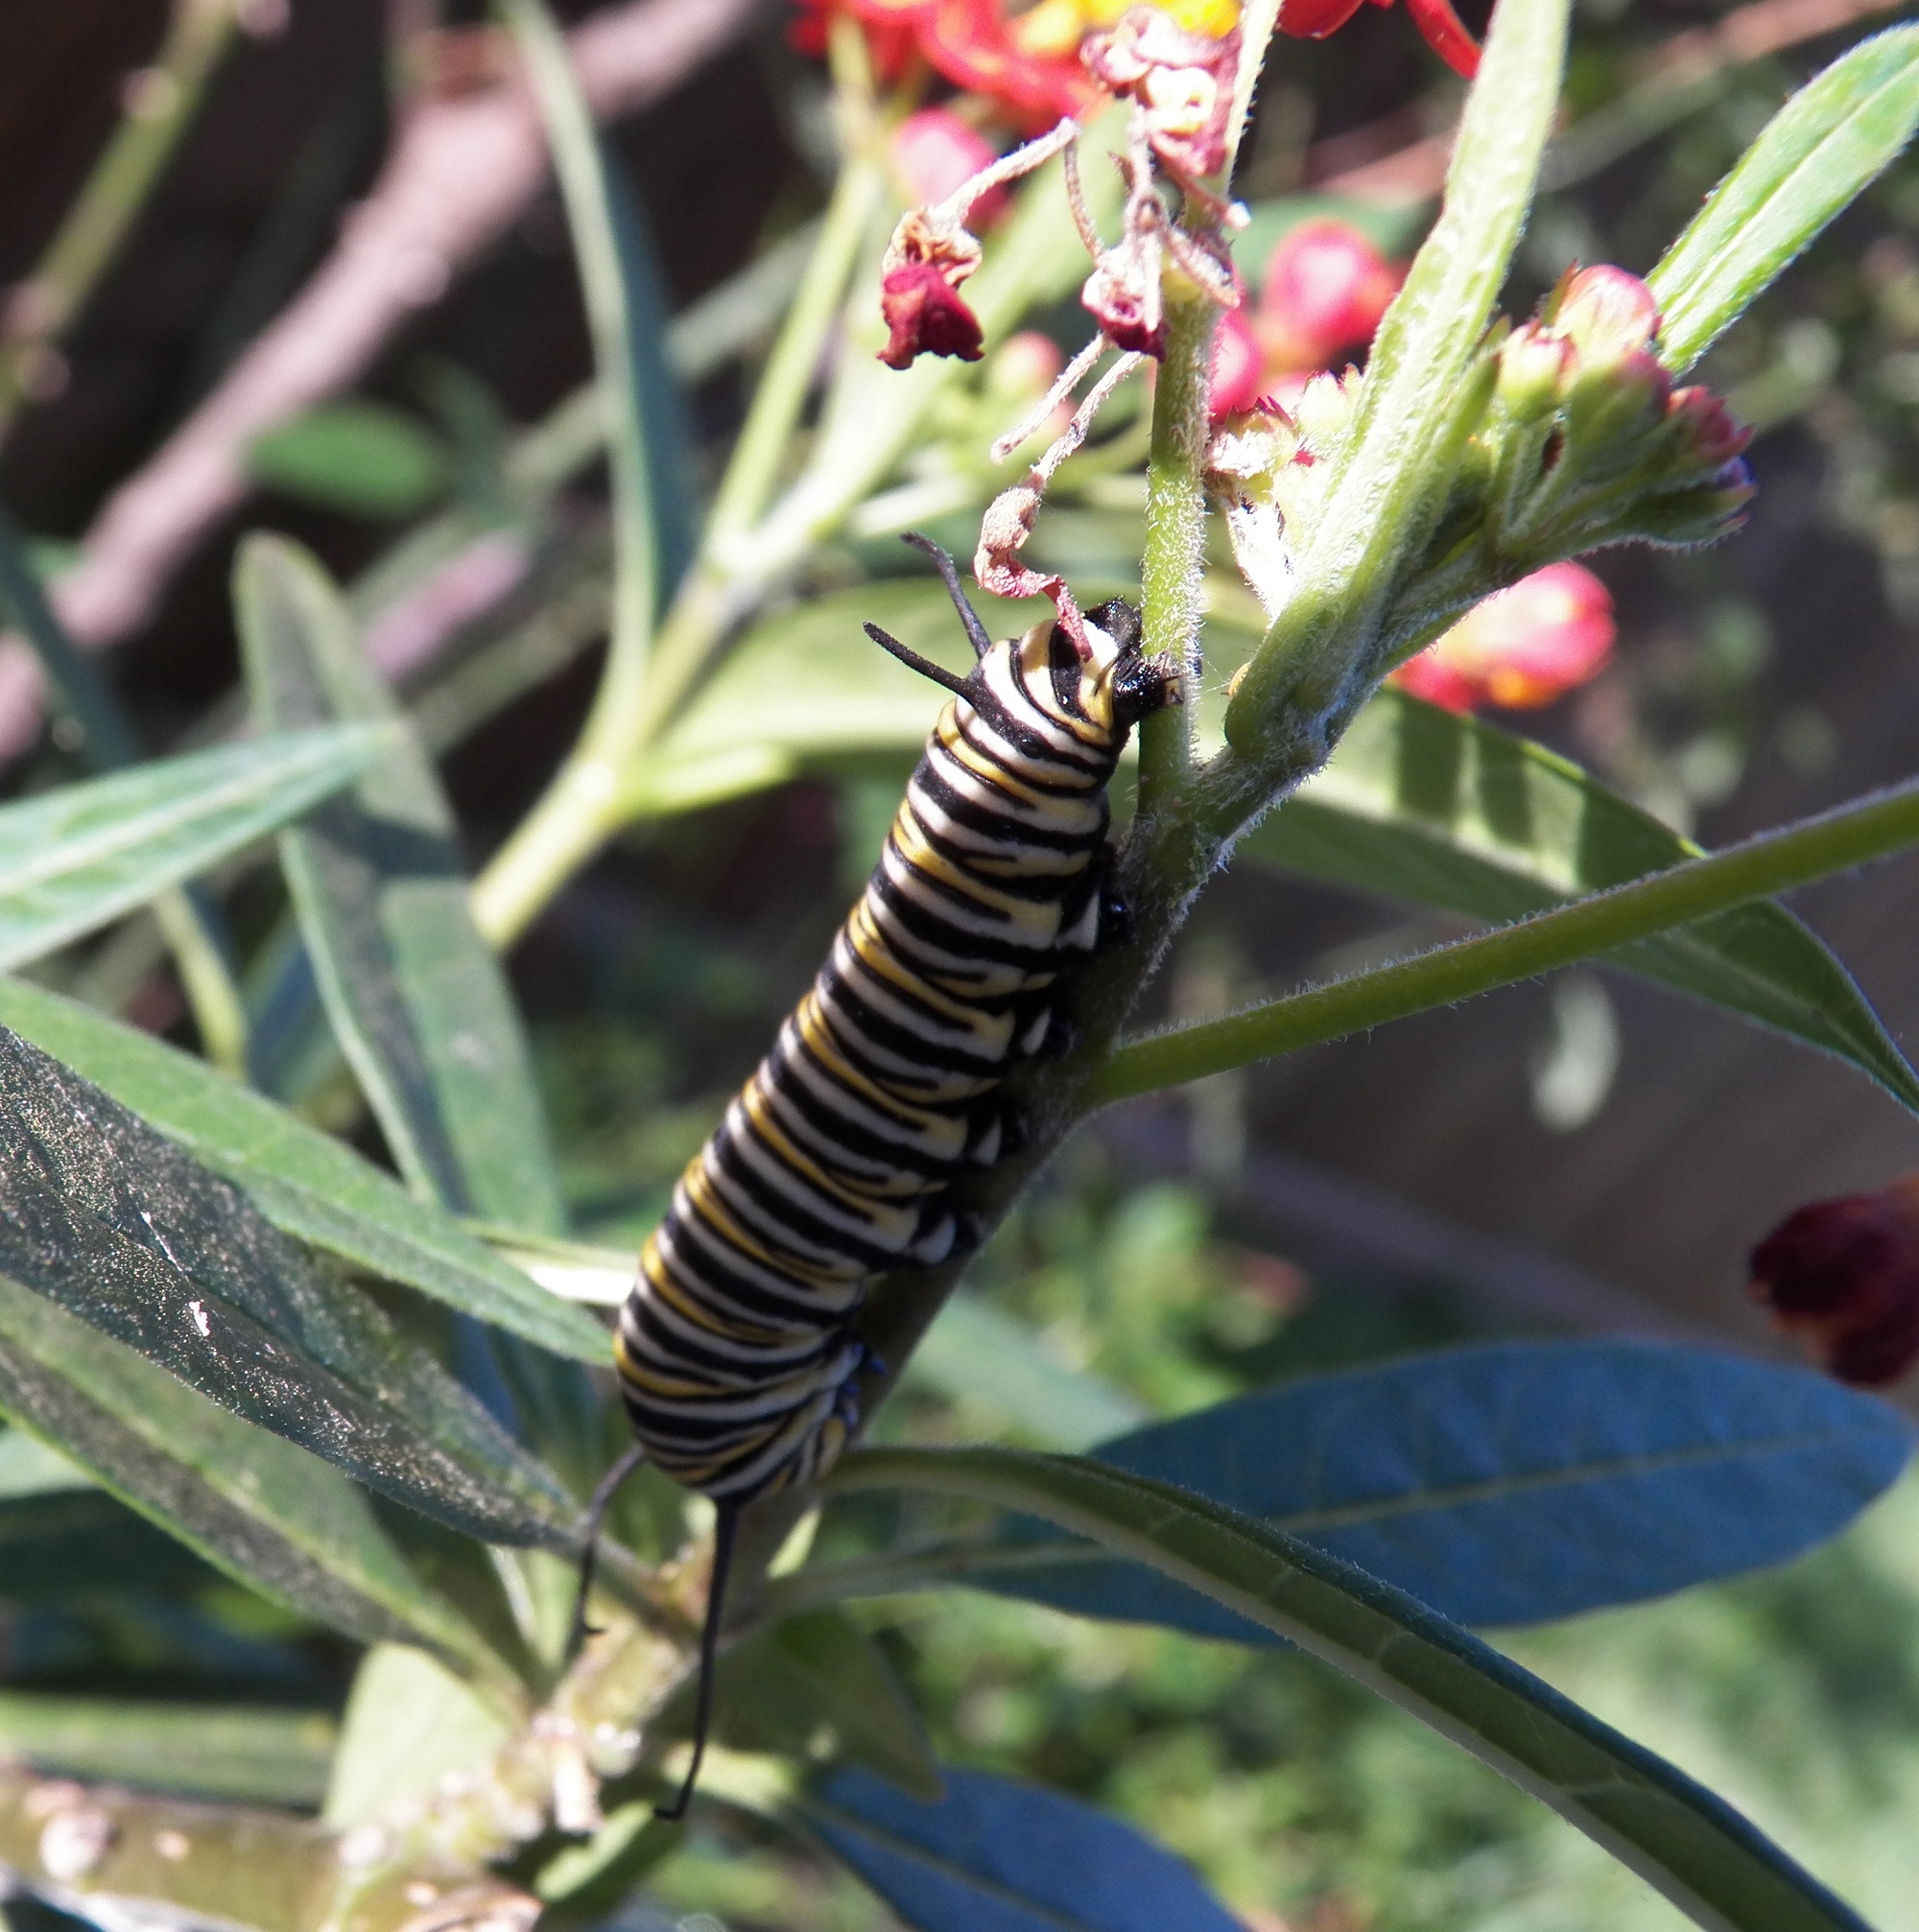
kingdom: Animalia
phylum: Arthropoda
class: Insecta
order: Lepidoptera
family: Nymphalidae
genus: Danaus
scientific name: Danaus plexippus
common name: Monarch
